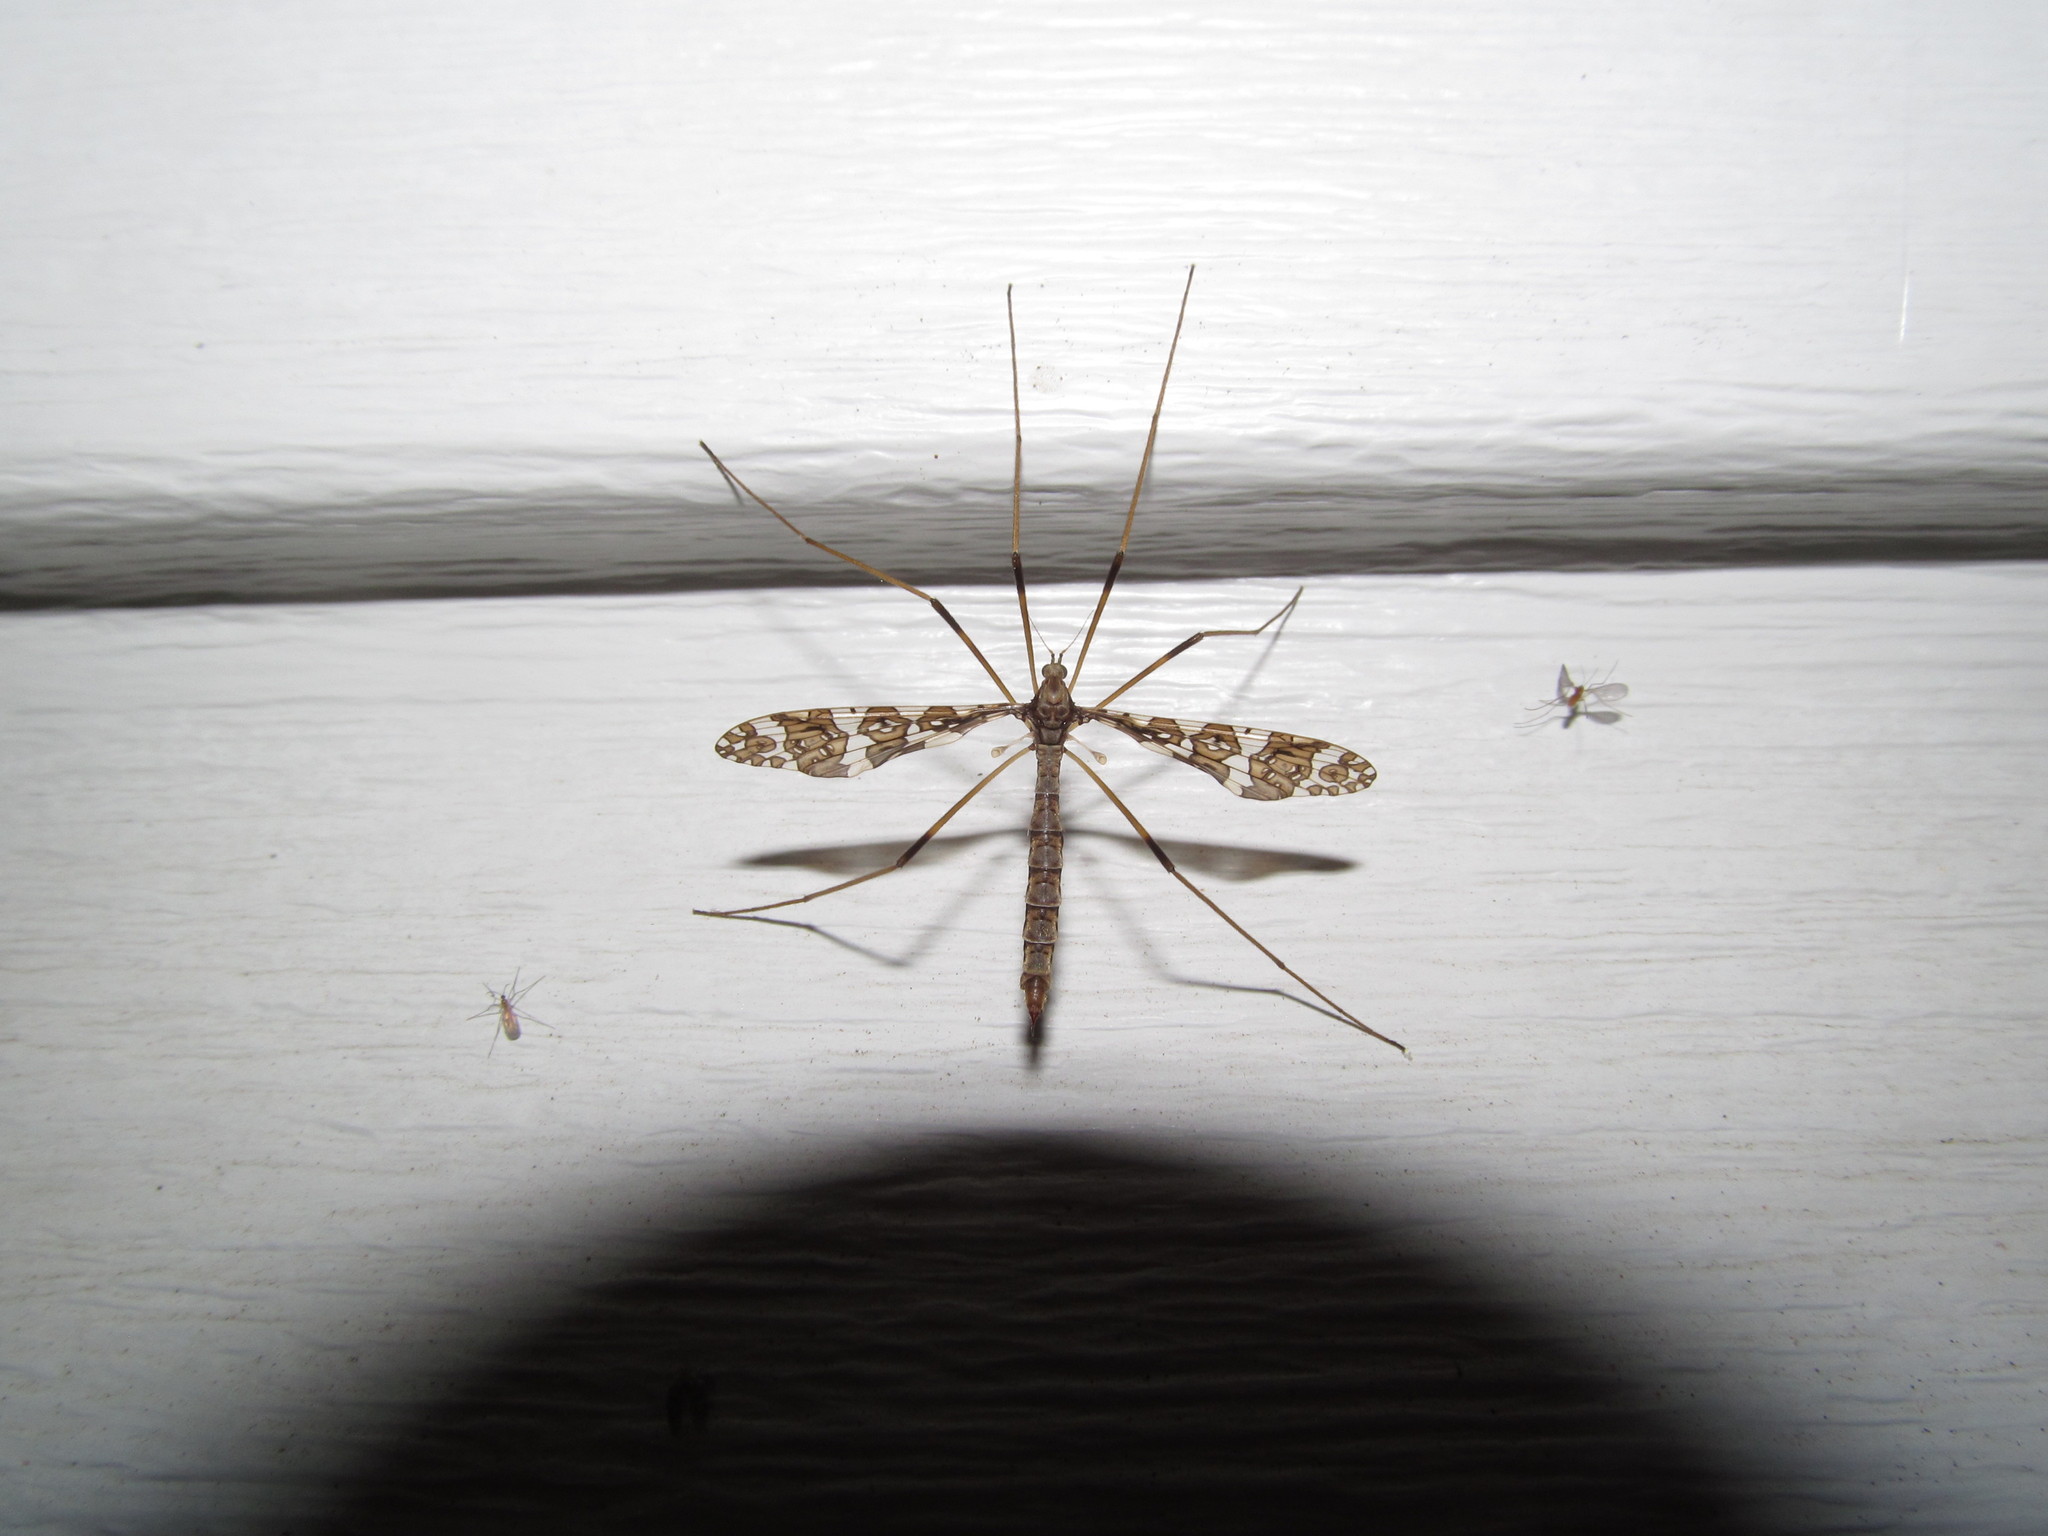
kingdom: Animalia
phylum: Arthropoda
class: Insecta
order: Diptera
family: Limoniidae
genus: Epiphragma
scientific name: Epiphragma fasciapenne
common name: Band-winged crane fly
